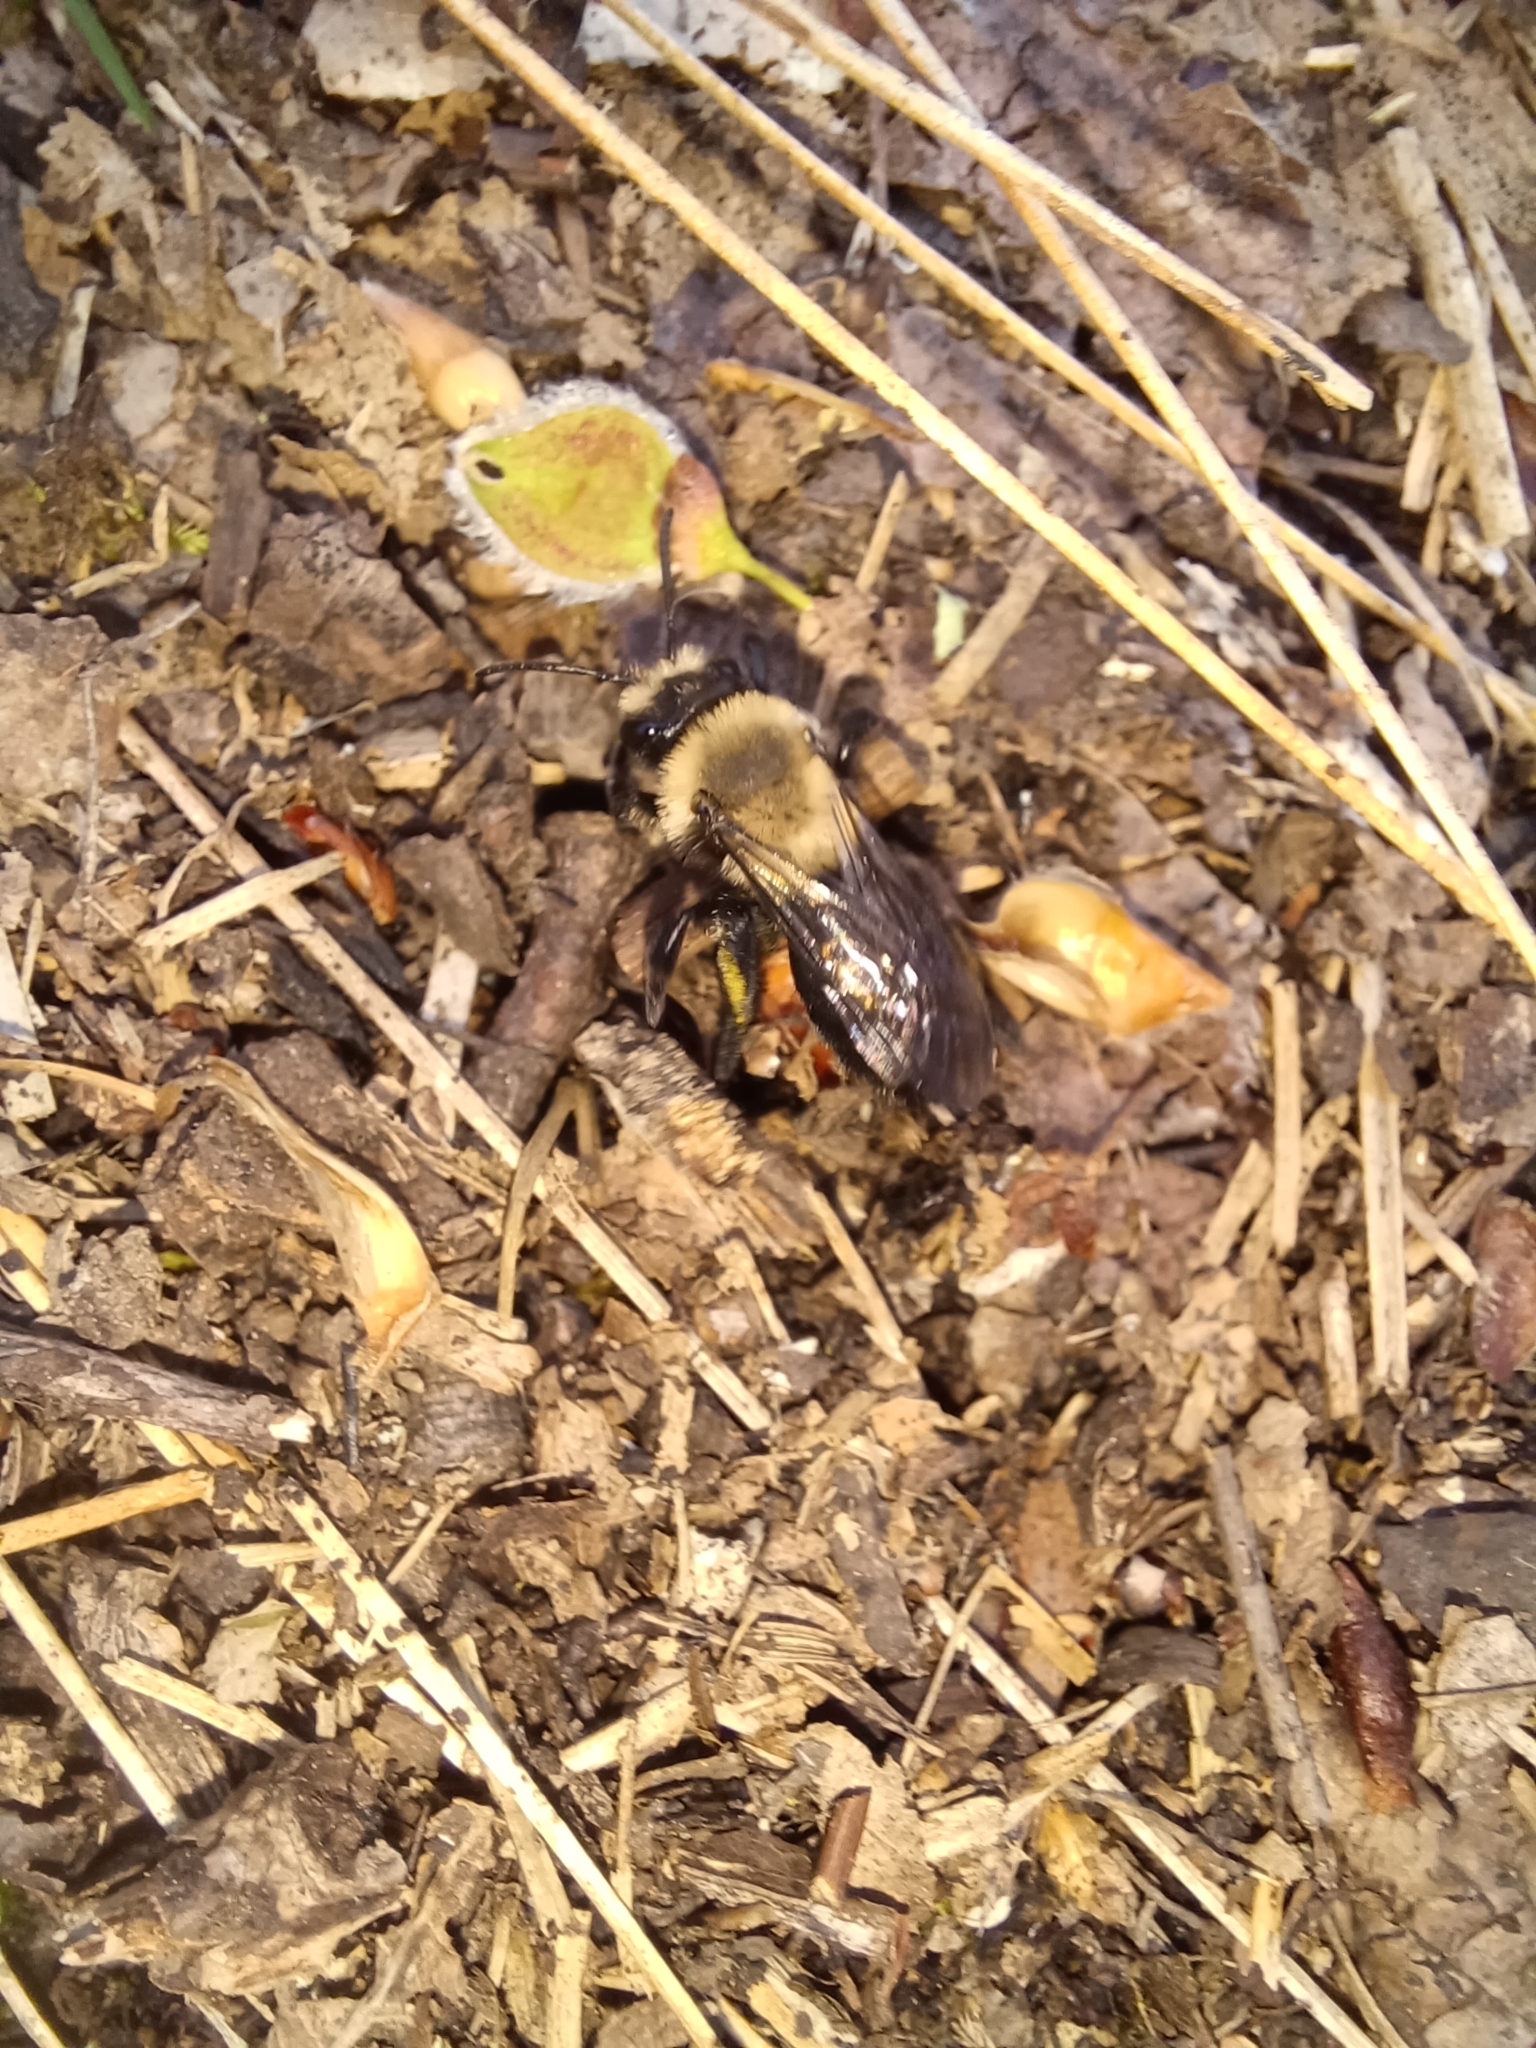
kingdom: Animalia
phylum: Arthropoda
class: Insecta
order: Hymenoptera
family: Andrenidae
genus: Andrena
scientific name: Andrena carlini
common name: Carlin's mining bee
